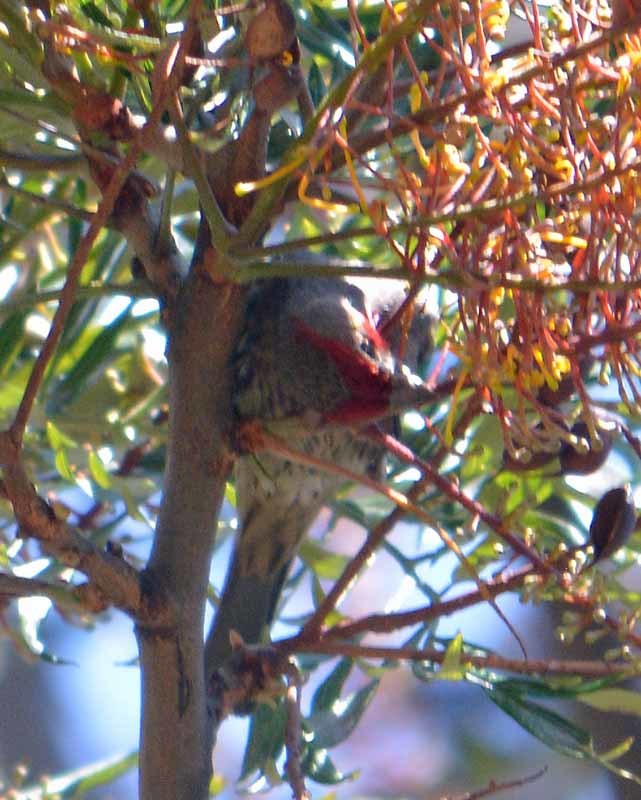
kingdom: Animalia
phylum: Chordata
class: Aves
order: Passeriformes
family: Fringillidae
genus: Haemorhous
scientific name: Haemorhous mexicanus
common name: House finch
